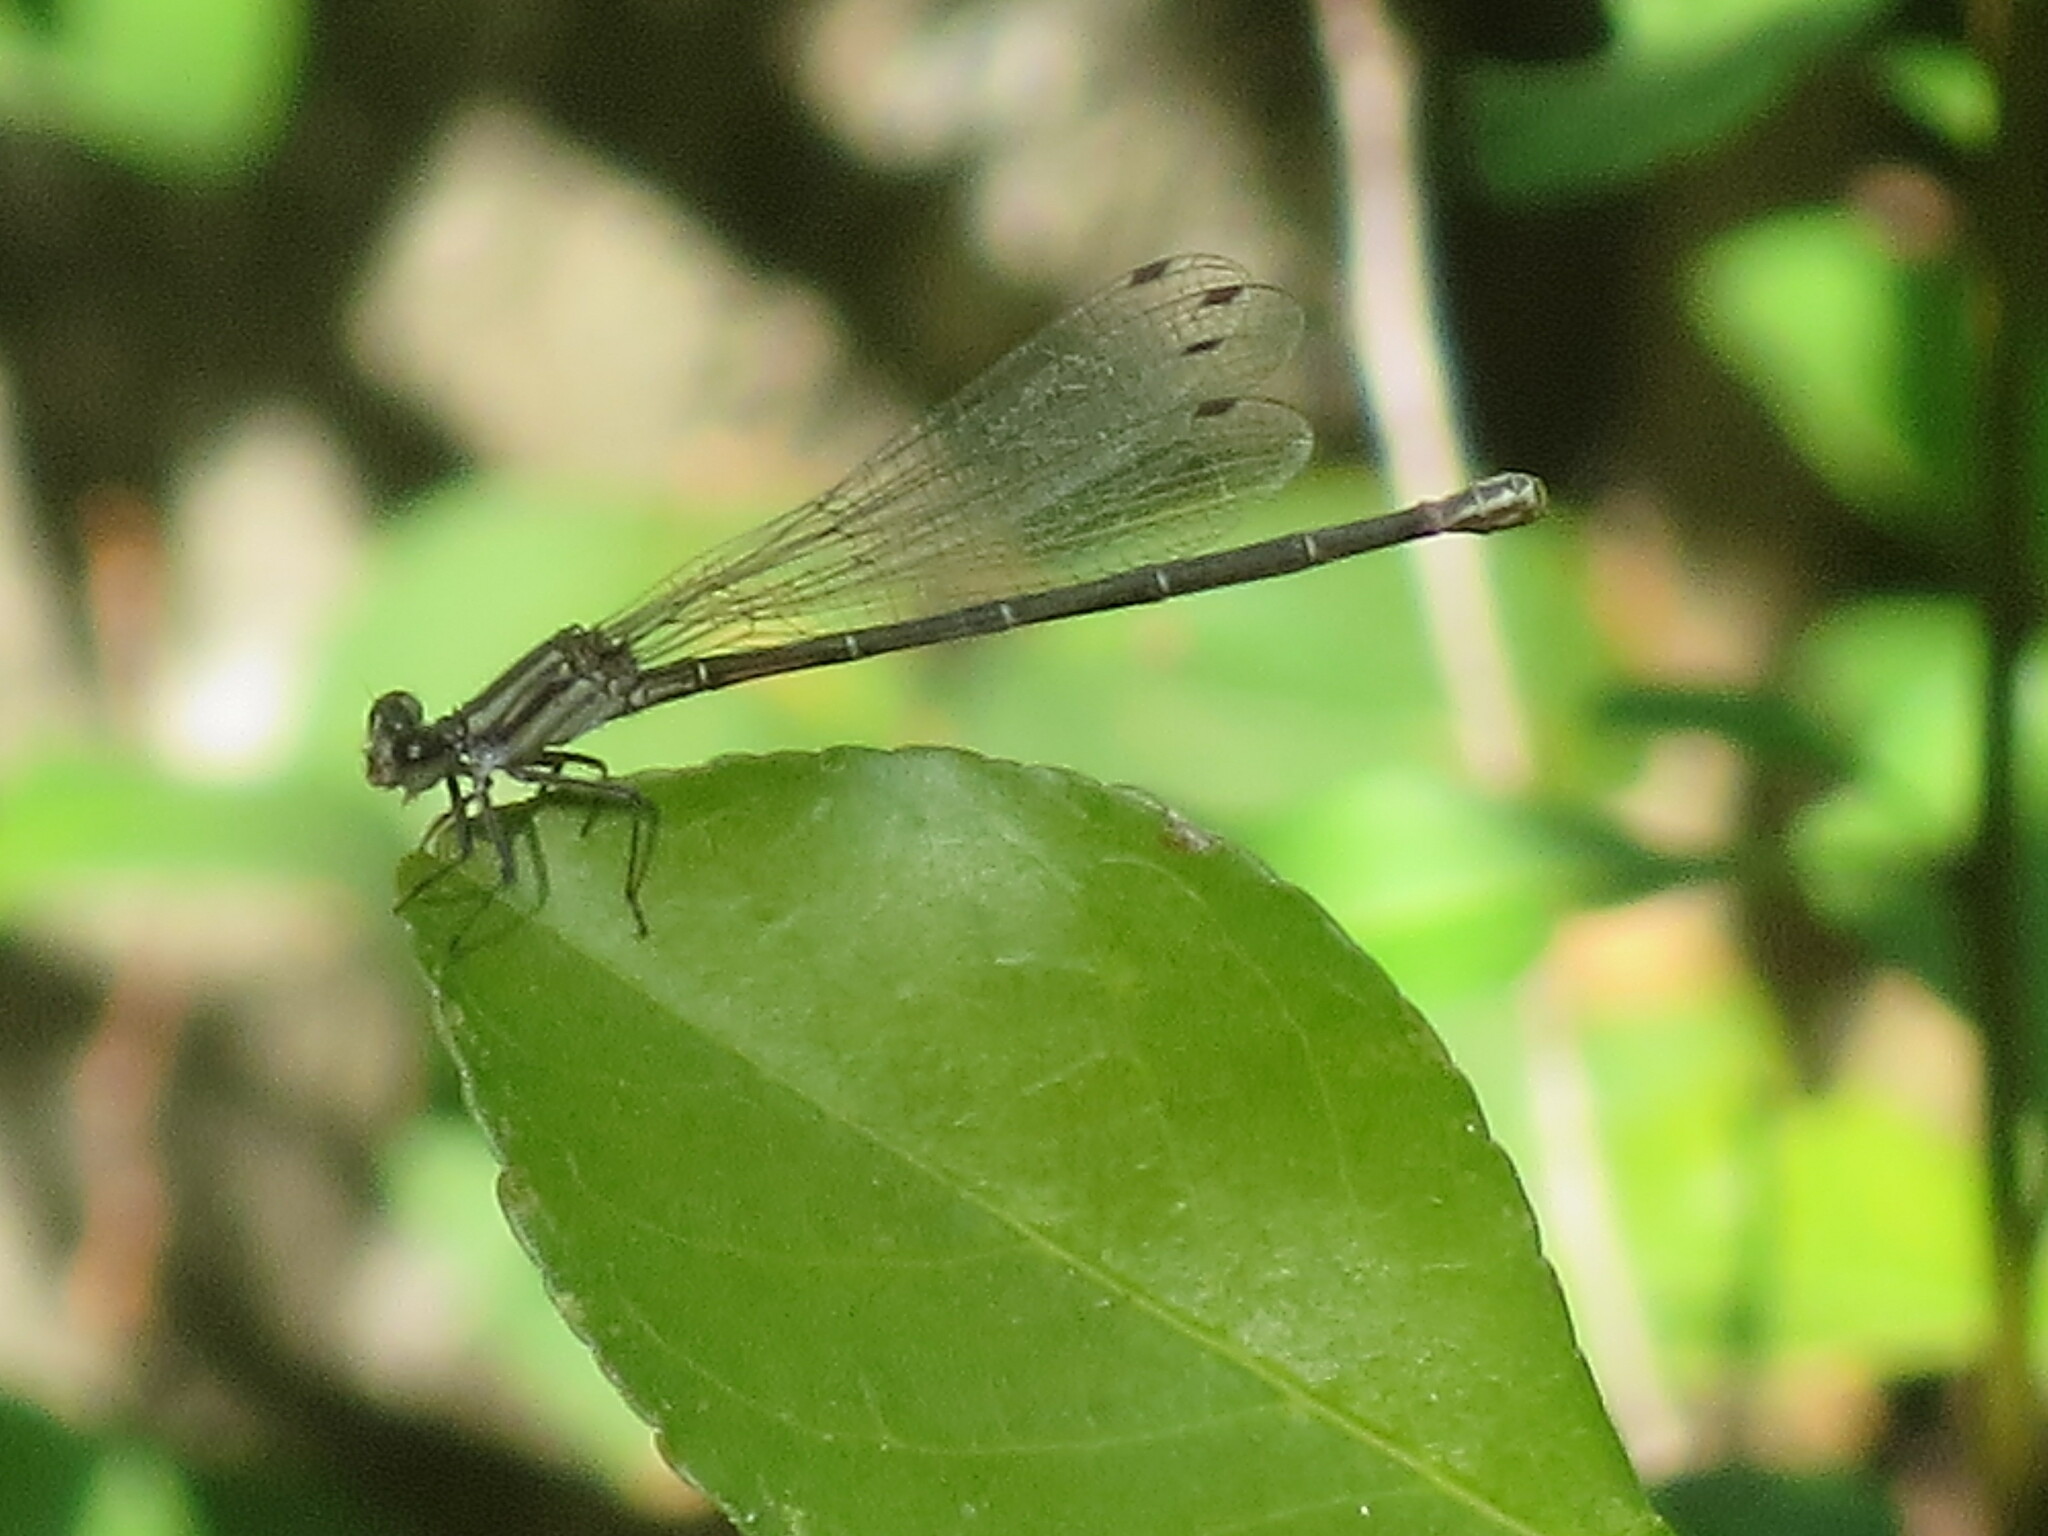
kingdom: Animalia
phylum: Arthropoda
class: Insecta
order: Odonata
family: Coenagrionidae
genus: Argia
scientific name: Argia translata
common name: Dusky dancer
